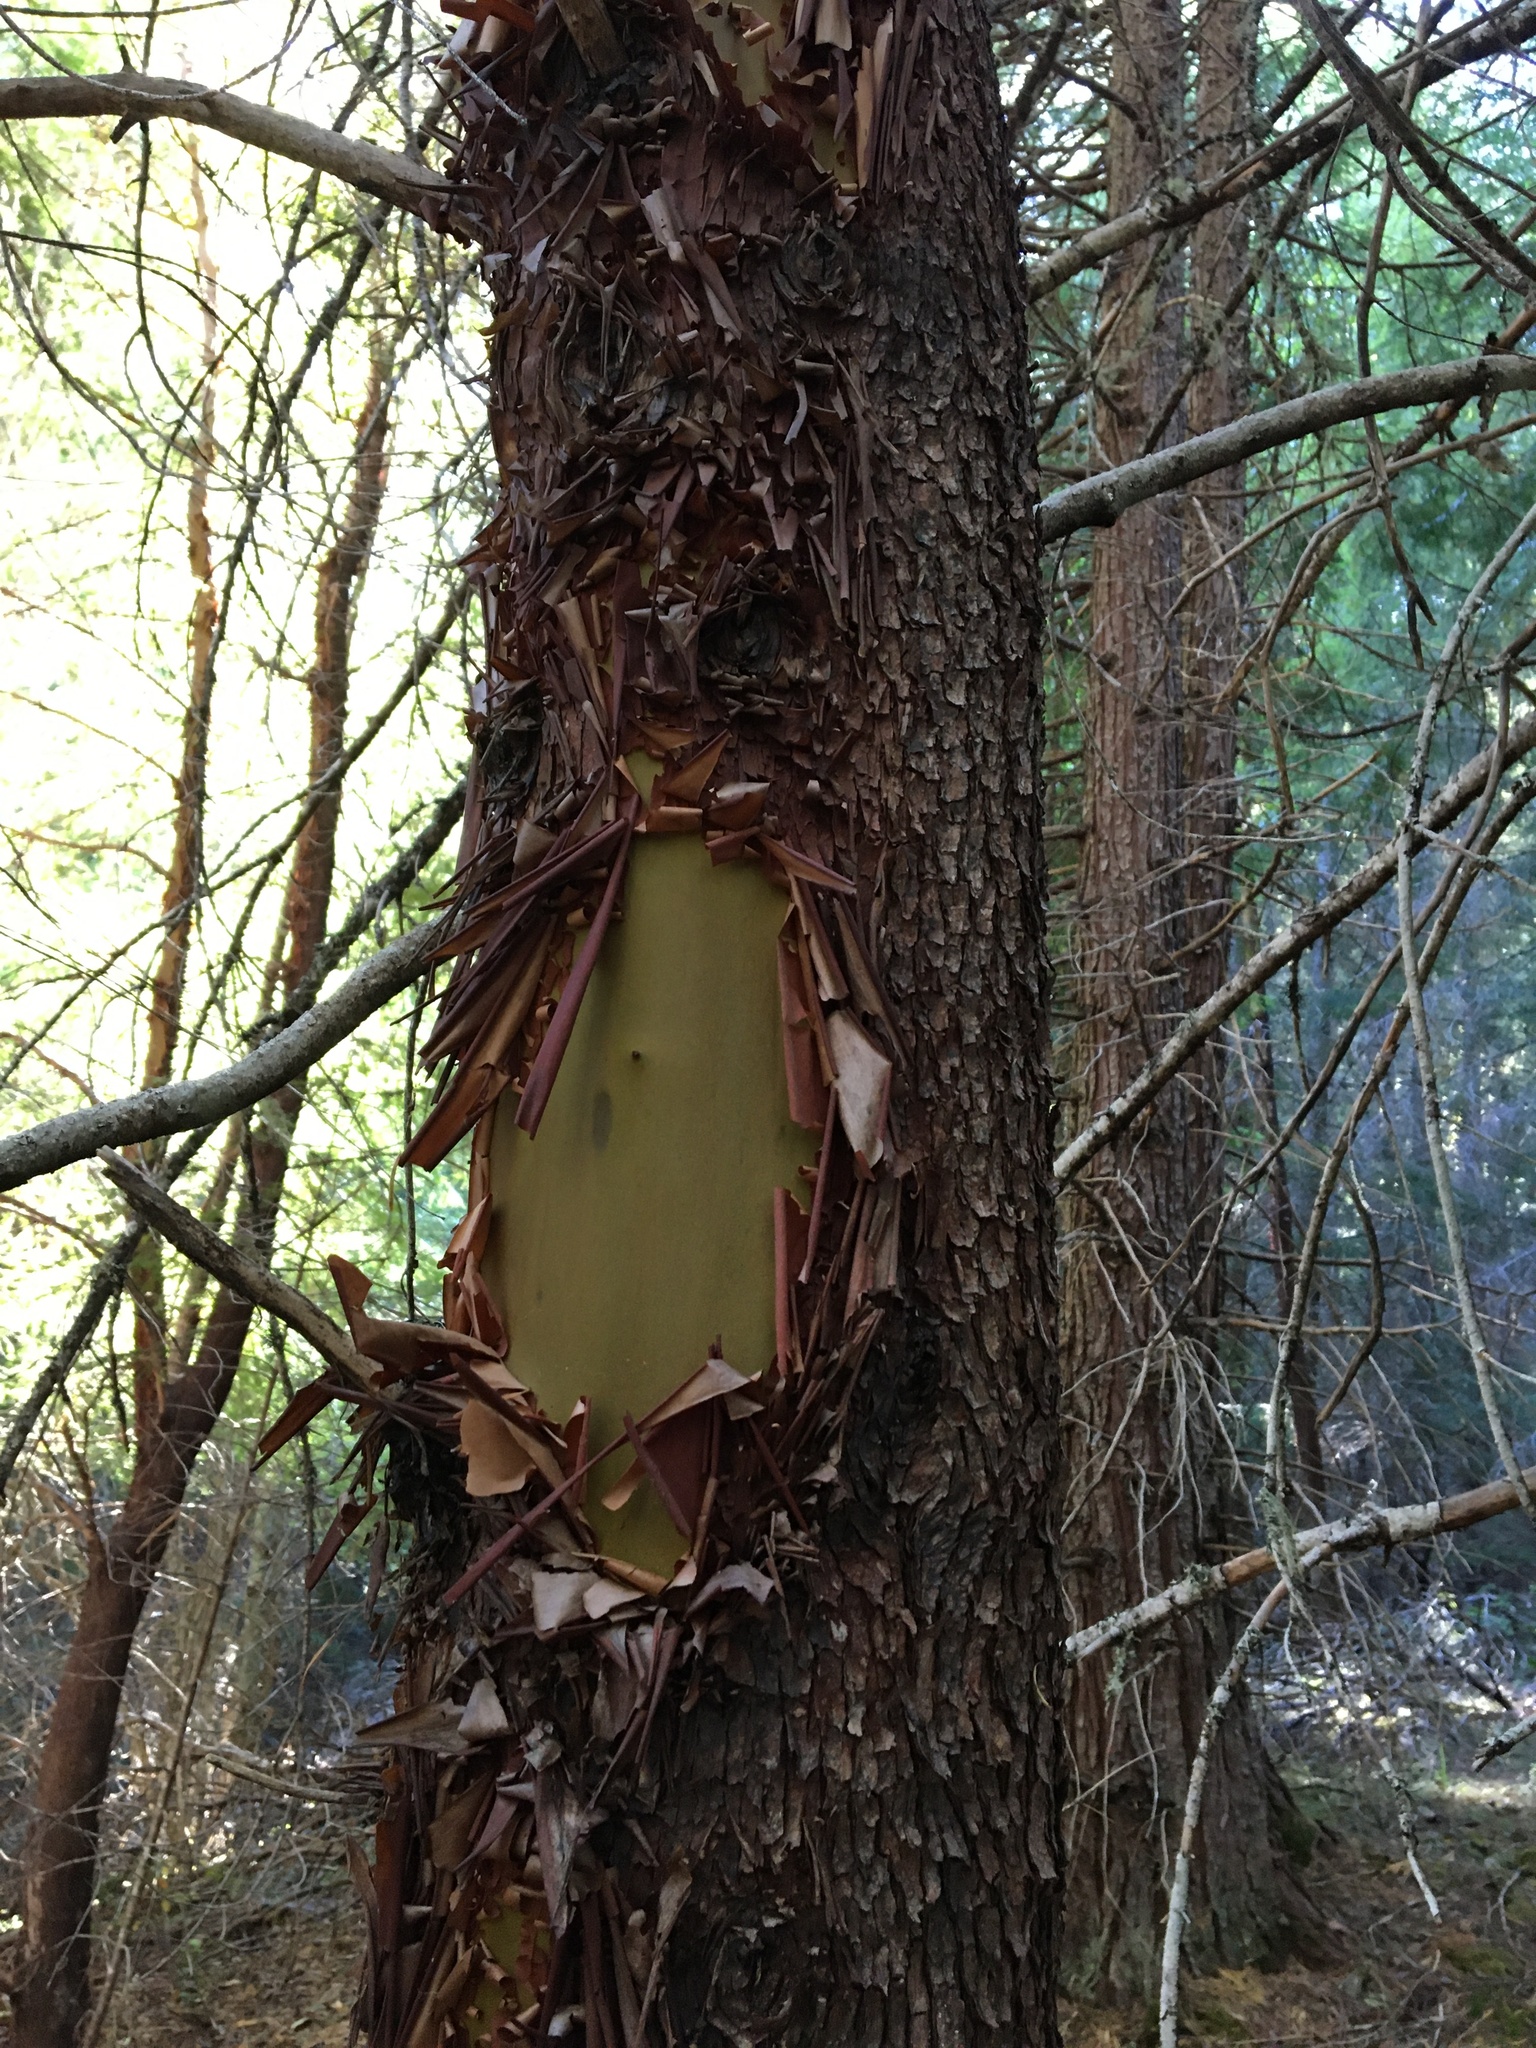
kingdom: Plantae
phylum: Tracheophyta
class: Magnoliopsida
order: Ericales
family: Ericaceae
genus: Arbutus
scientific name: Arbutus menziesii
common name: Pacific madrone
